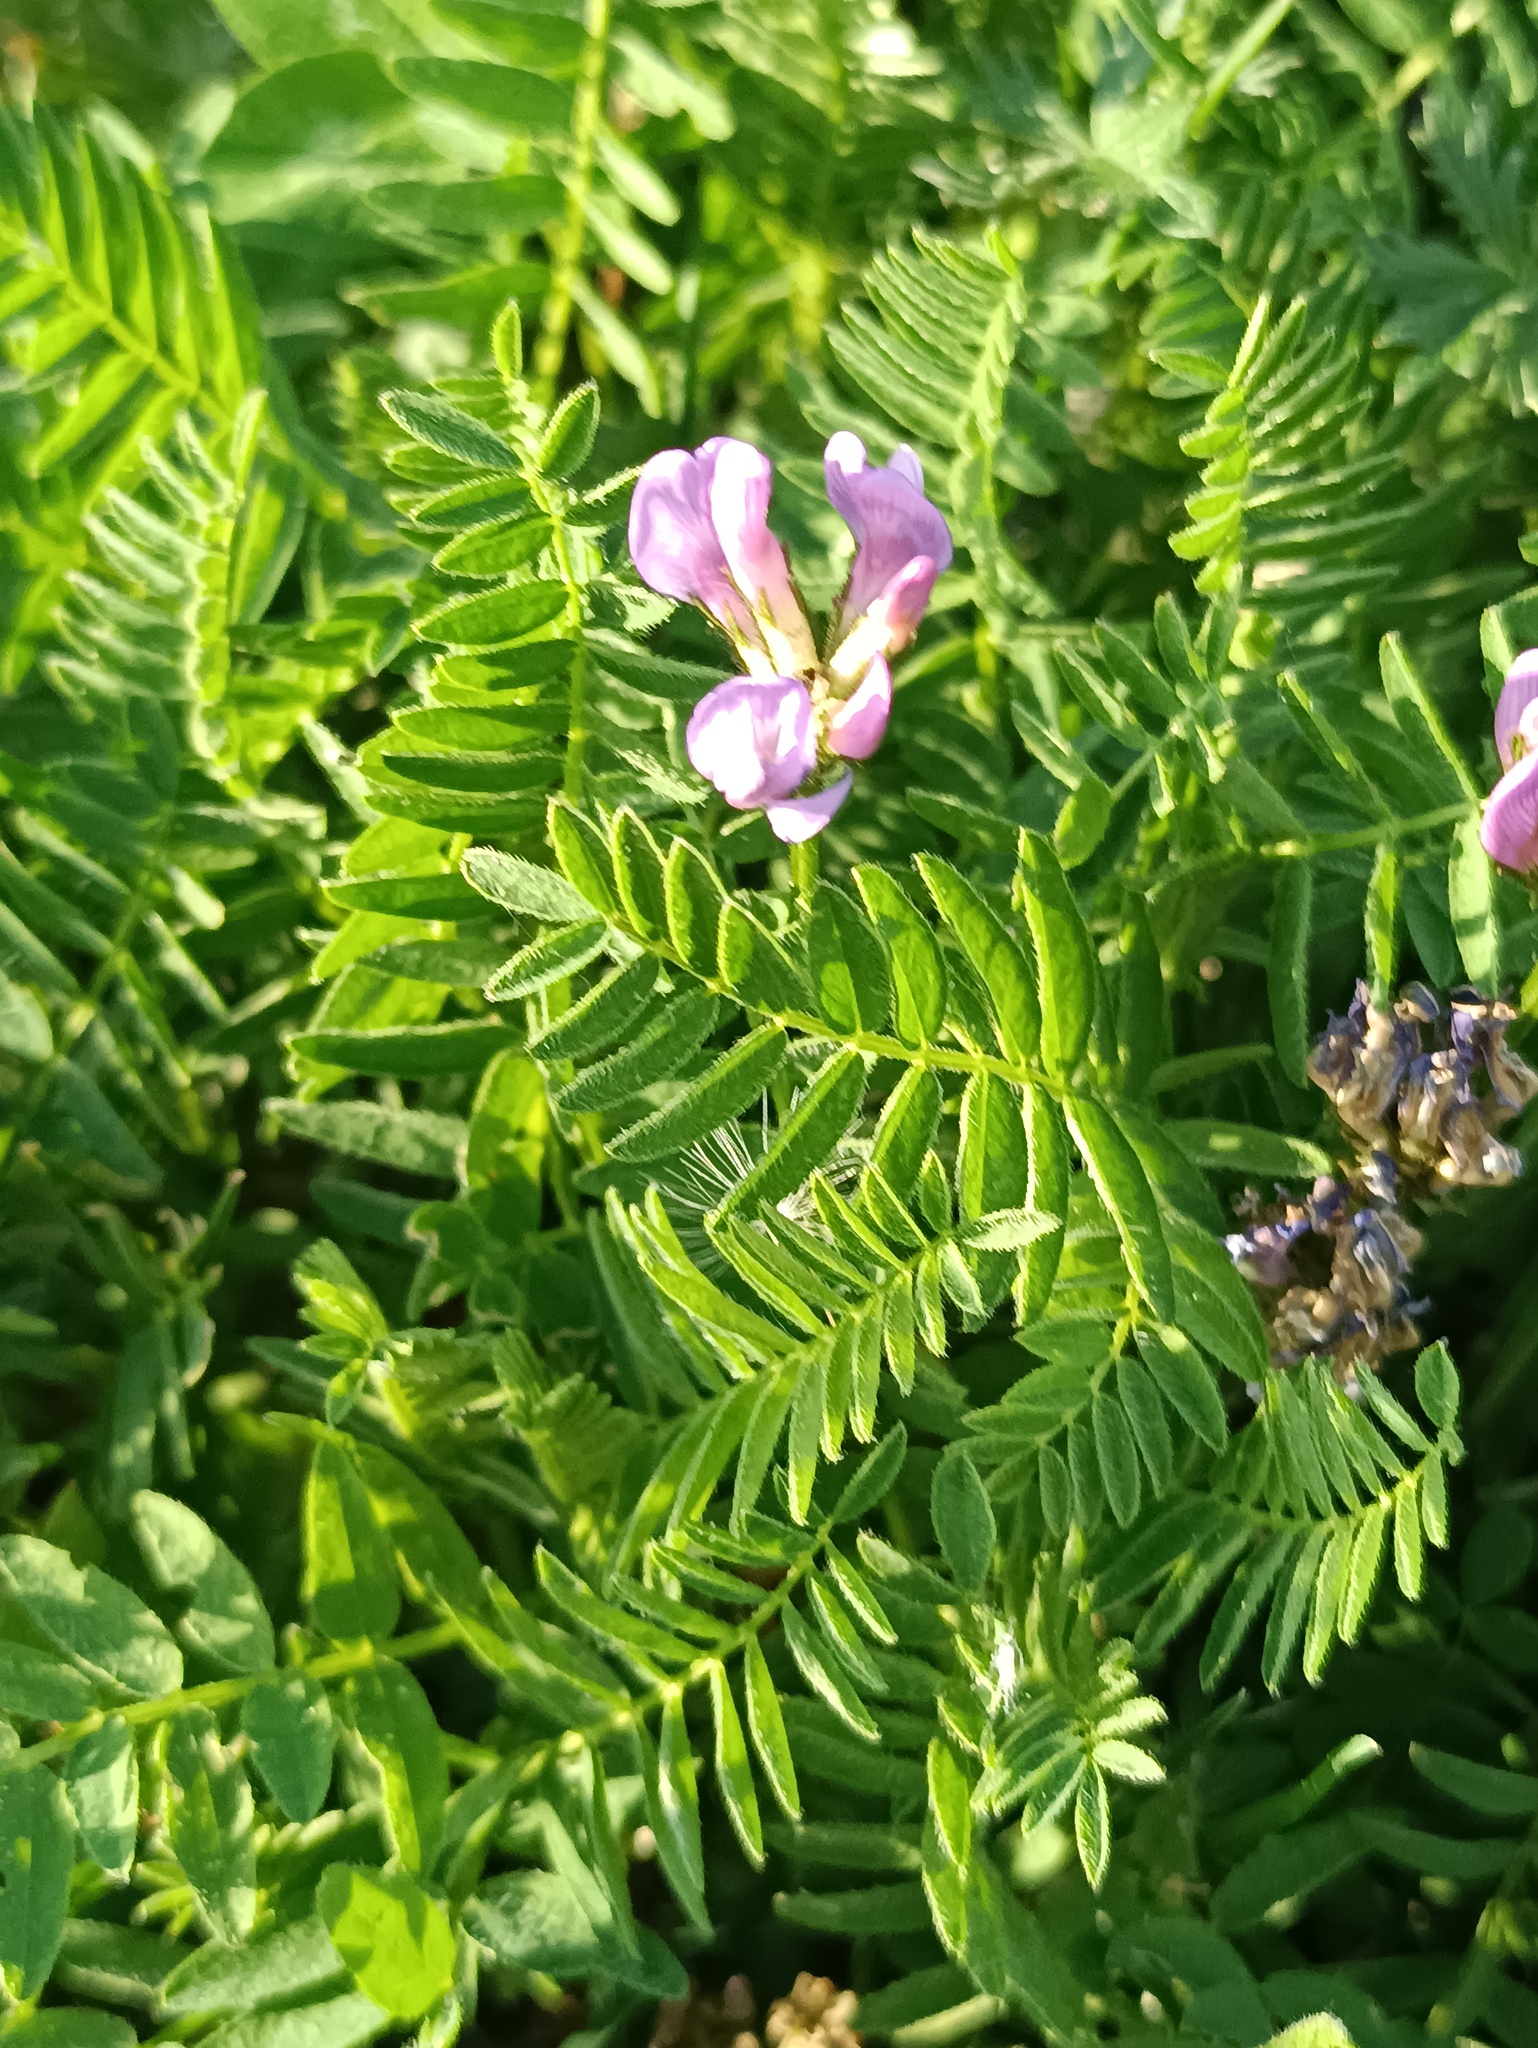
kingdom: Plantae
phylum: Tracheophyta
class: Magnoliopsida
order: Fabales
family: Fabaceae
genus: Astragalus
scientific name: Astragalus danicus
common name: Purple milk-vetch
